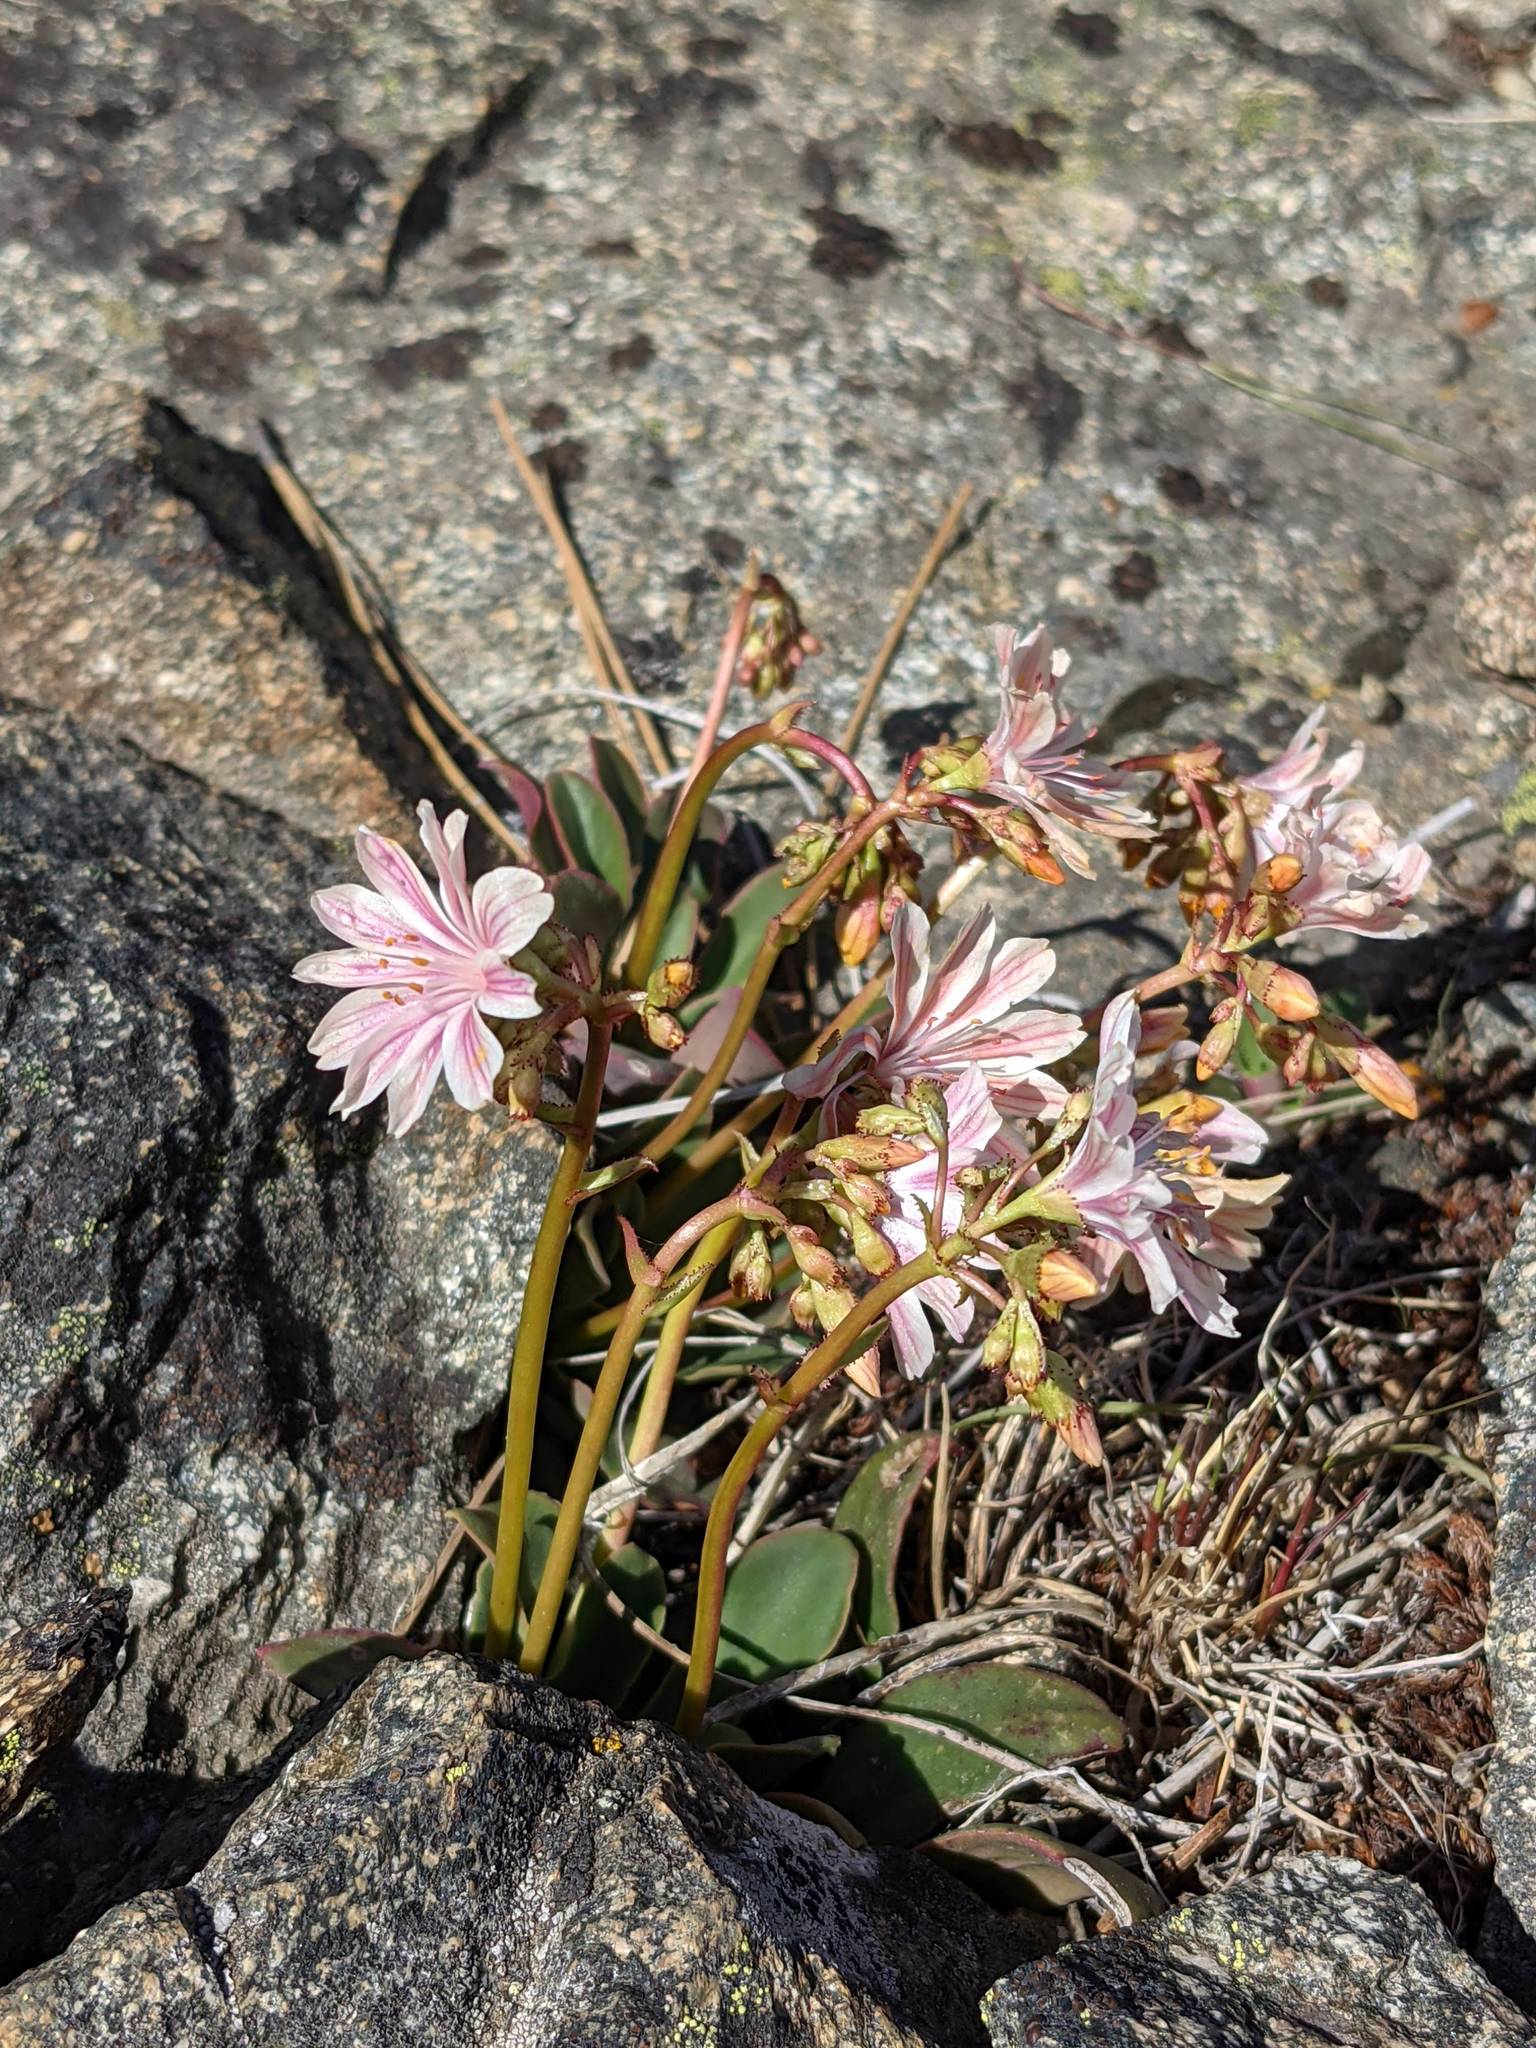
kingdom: Plantae
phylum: Tracheophyta
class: Magnoliopsida
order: Caryophyllales
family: Montiaceae
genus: Lewisia
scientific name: Lewisia cotyledon
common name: Siskiyou lewisia
